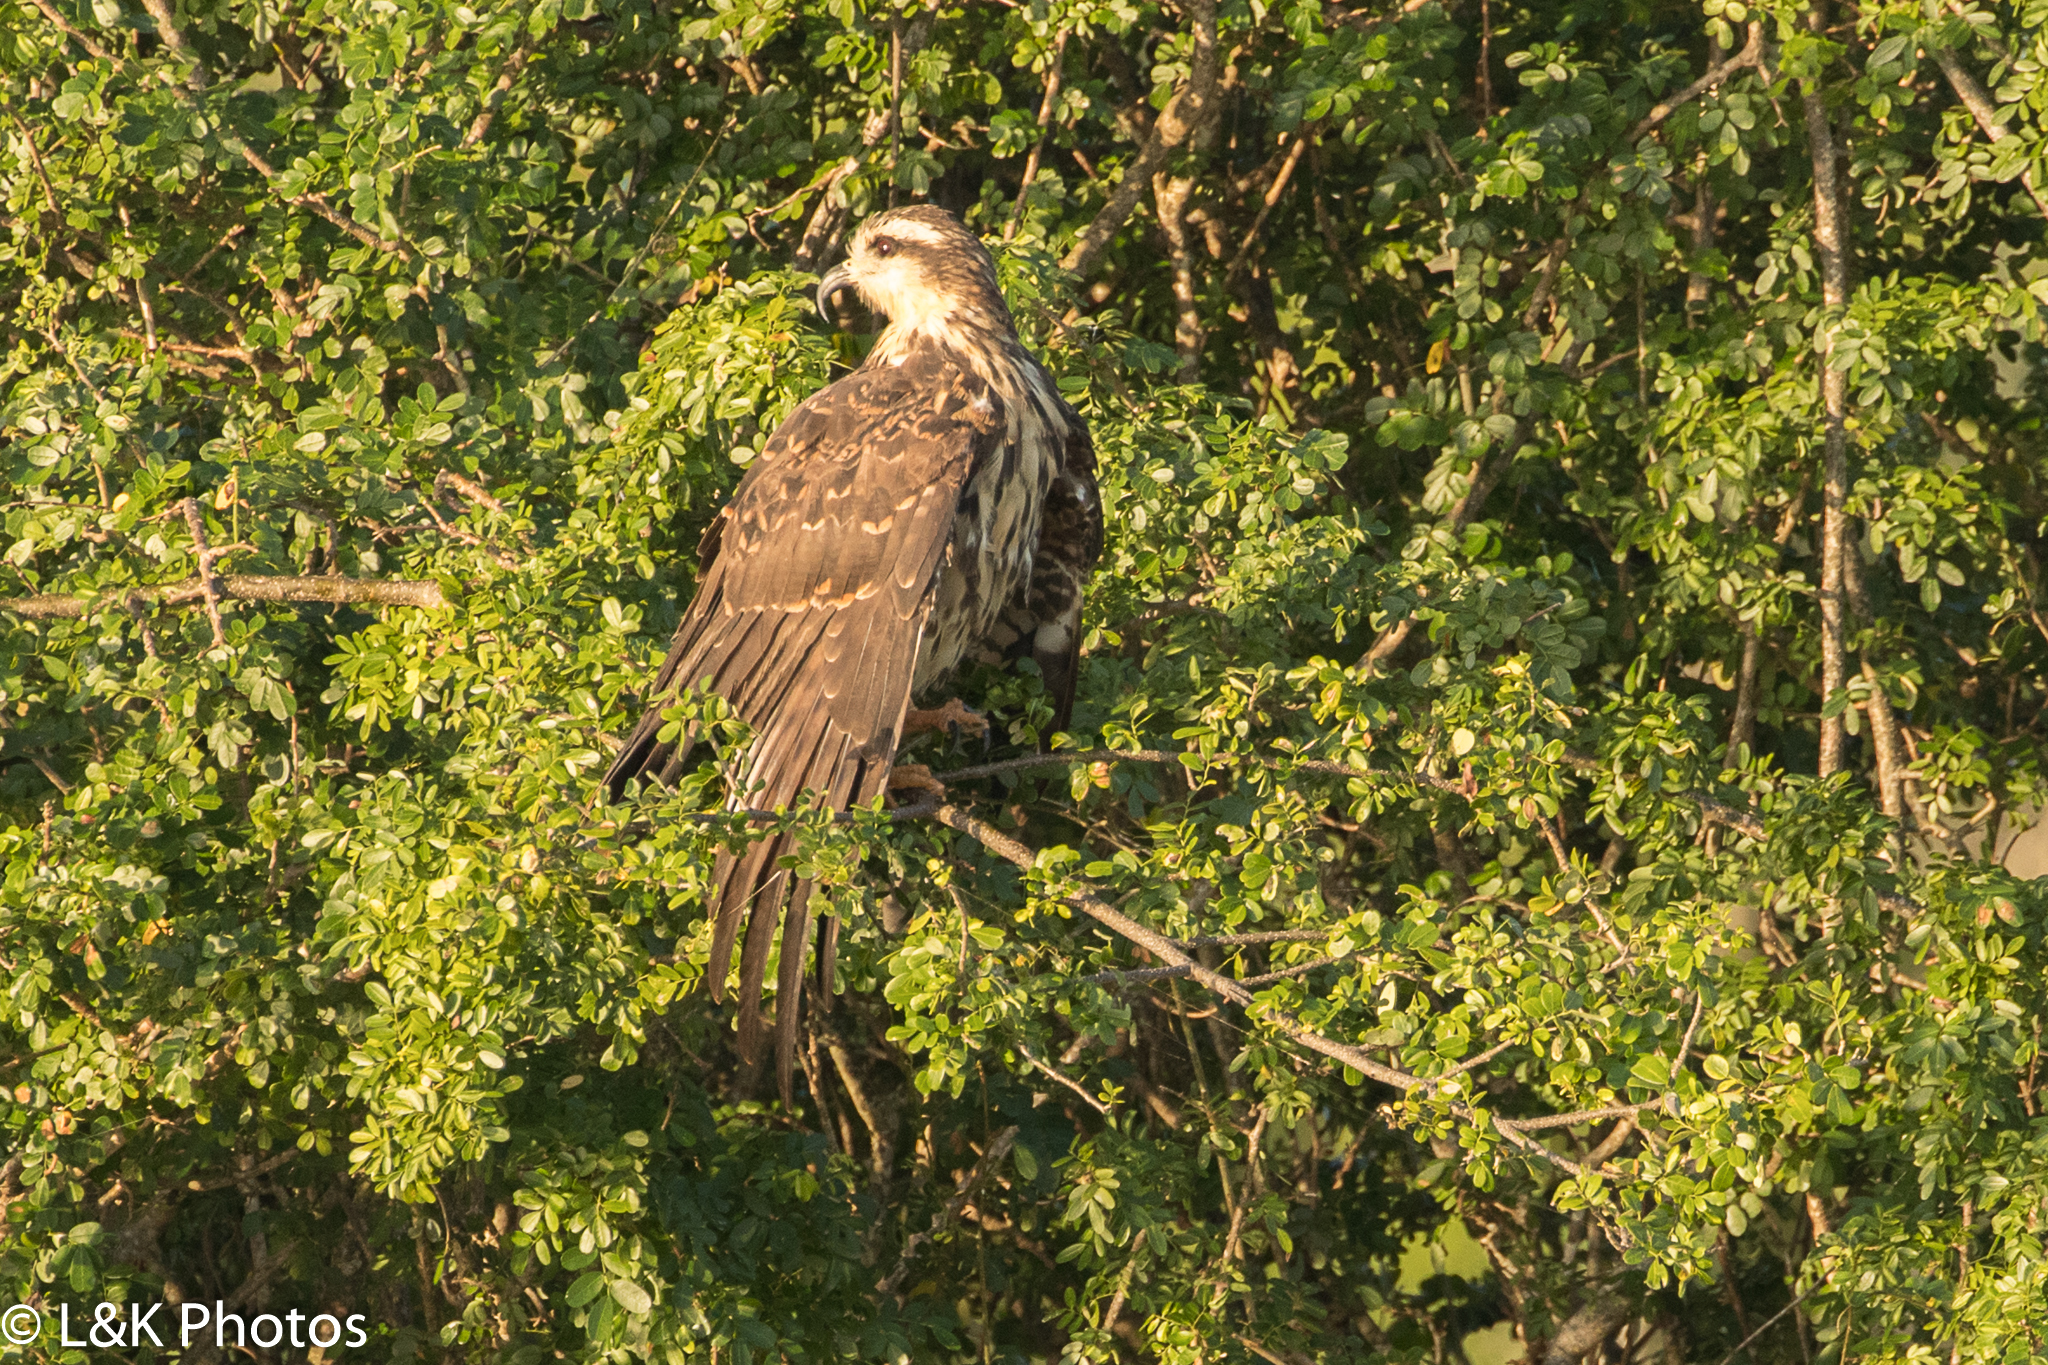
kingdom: Animalia
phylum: Chordata
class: Aves
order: Accipitriformes
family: Accipitridae
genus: Rostrhamus
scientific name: Rostrhamus sociabilis
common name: Snail kite
